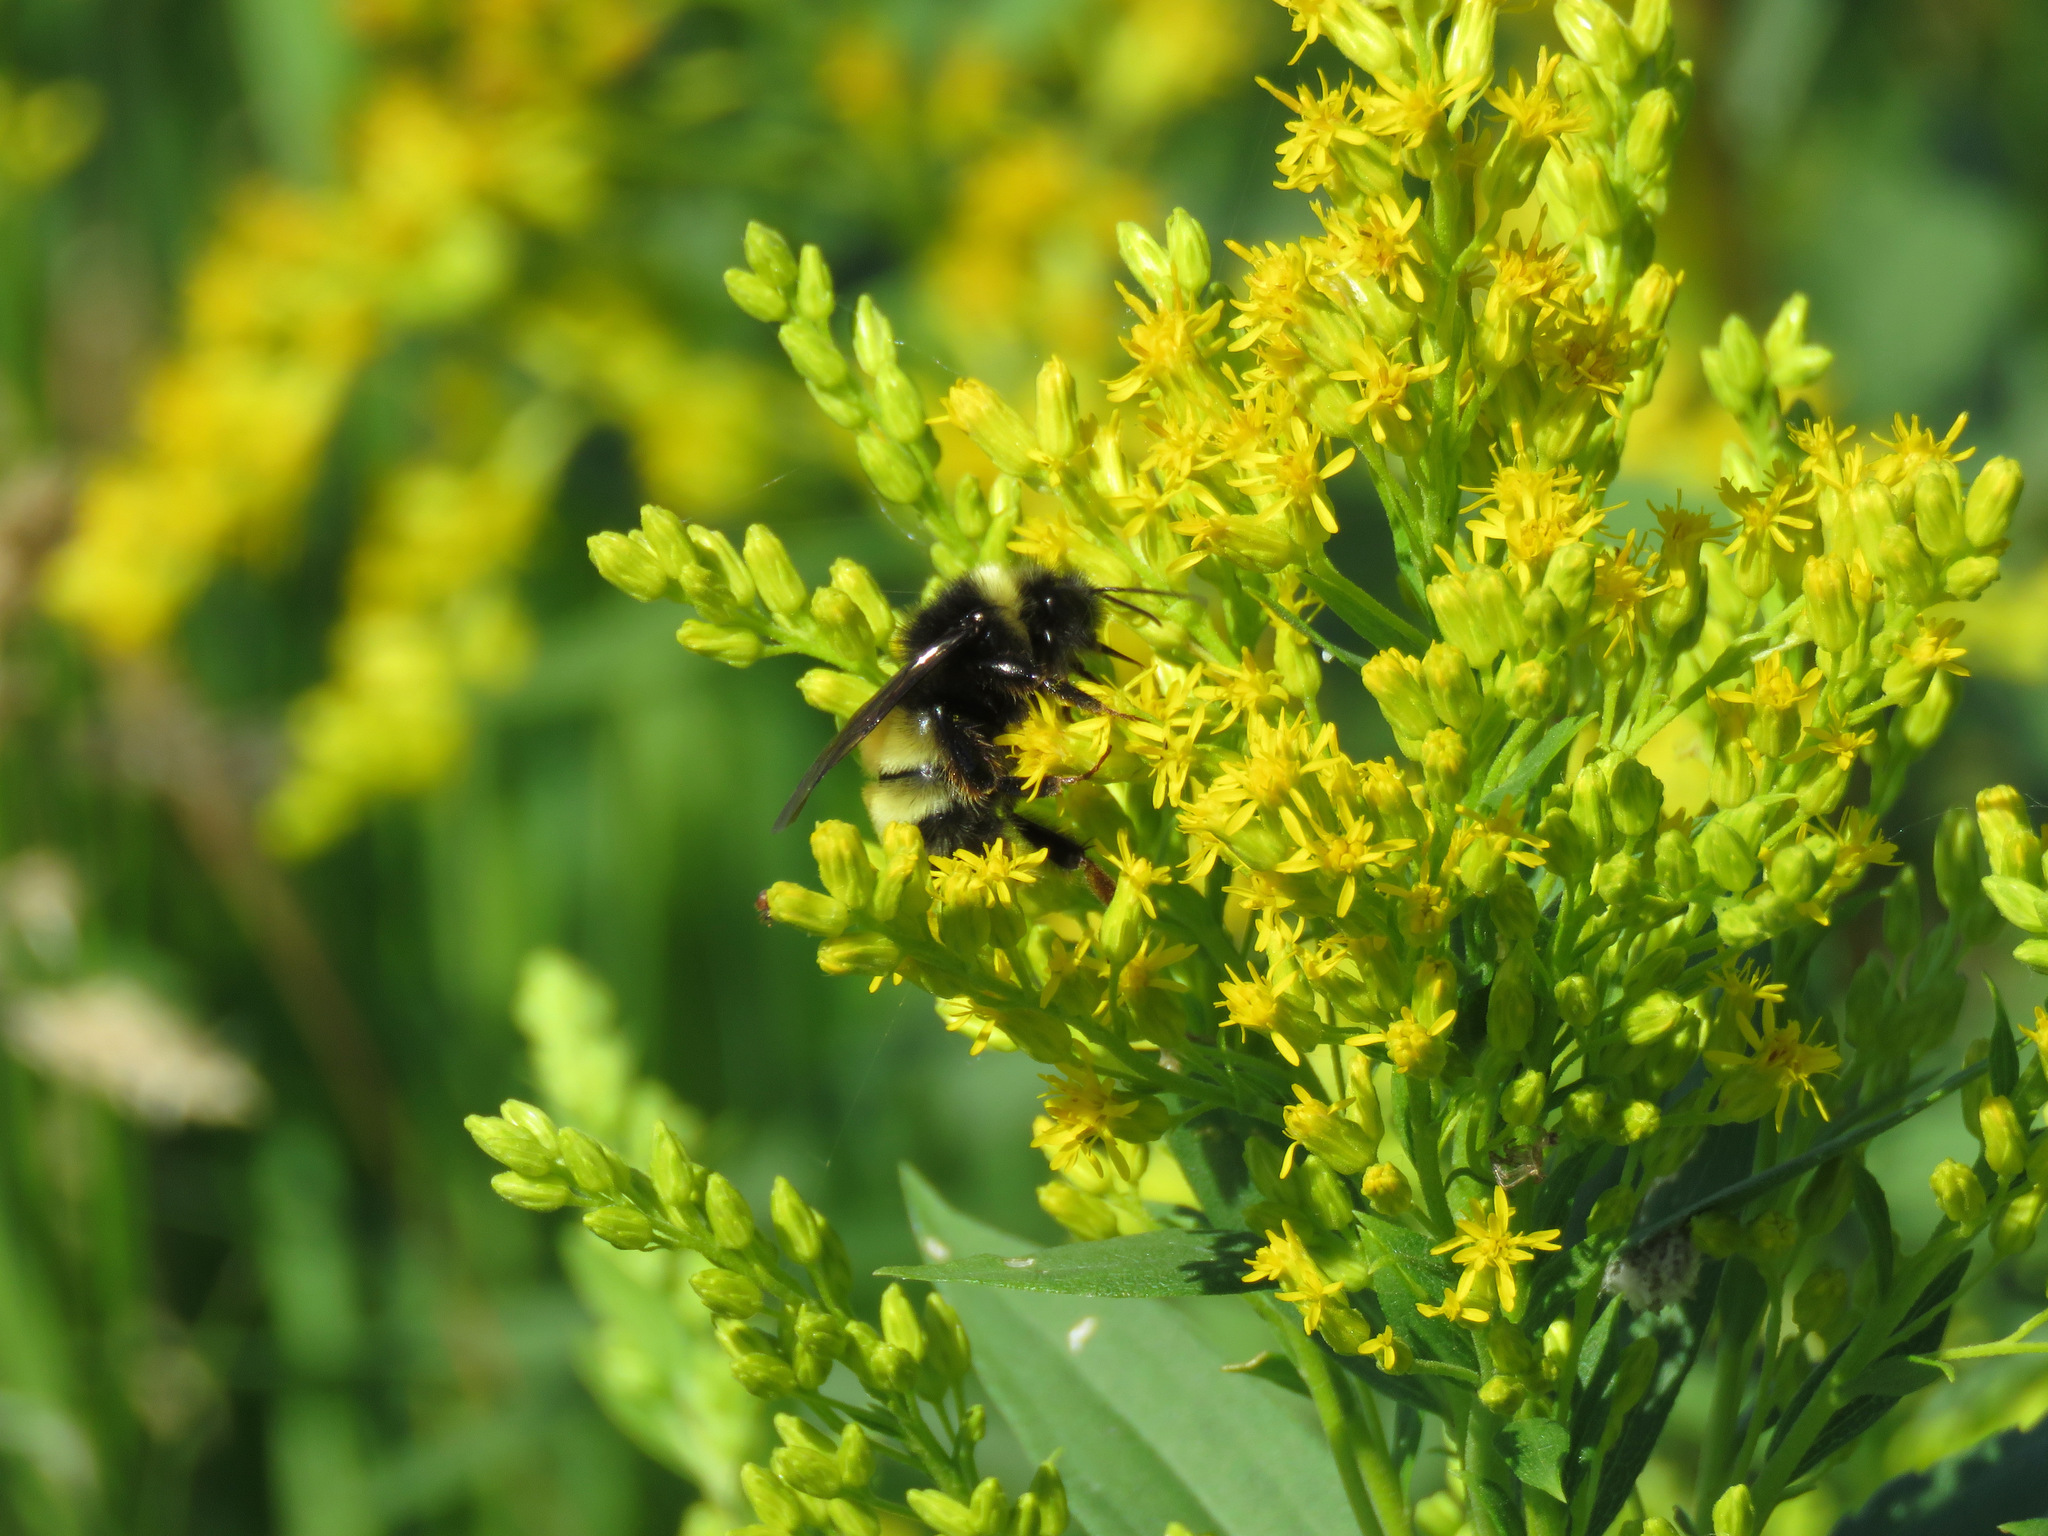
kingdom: Animalia
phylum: Arthropoda
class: Insecta
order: Hymenoptera
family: Apidae
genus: Bombus
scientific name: Bombus terricola
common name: Yellow-banded bumble bee
